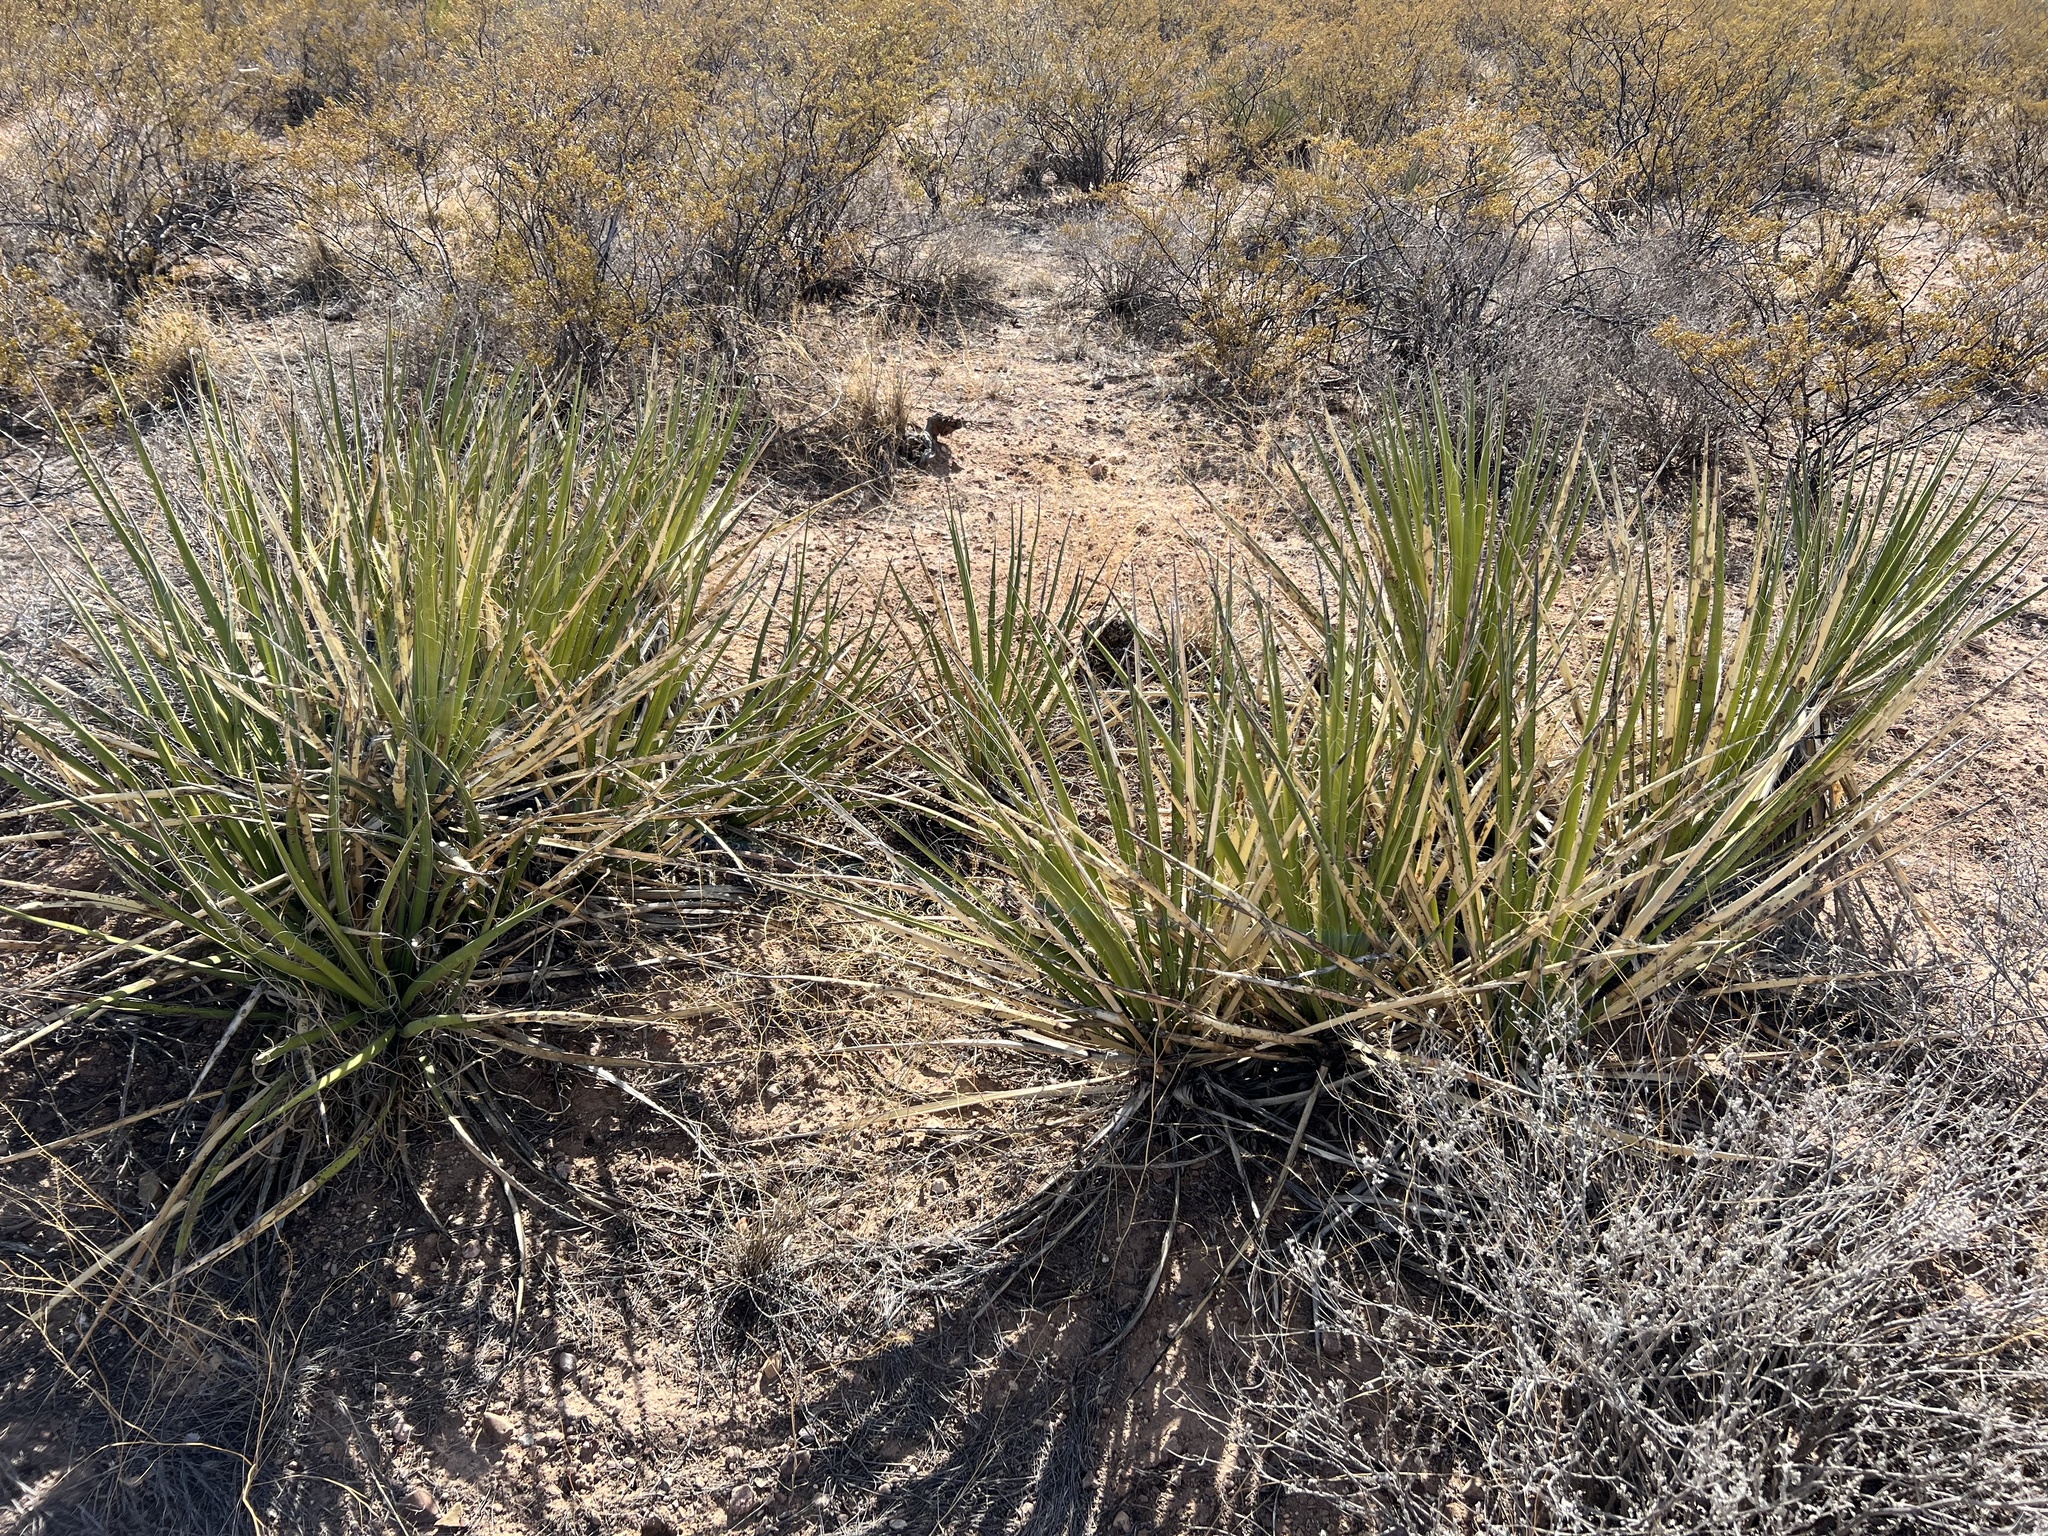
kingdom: Plantae
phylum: Tracheophyta
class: Liliopsida
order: Asparagales
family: Asparagaceae
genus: Yucca
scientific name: Yucca baccata
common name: Banana yucca
